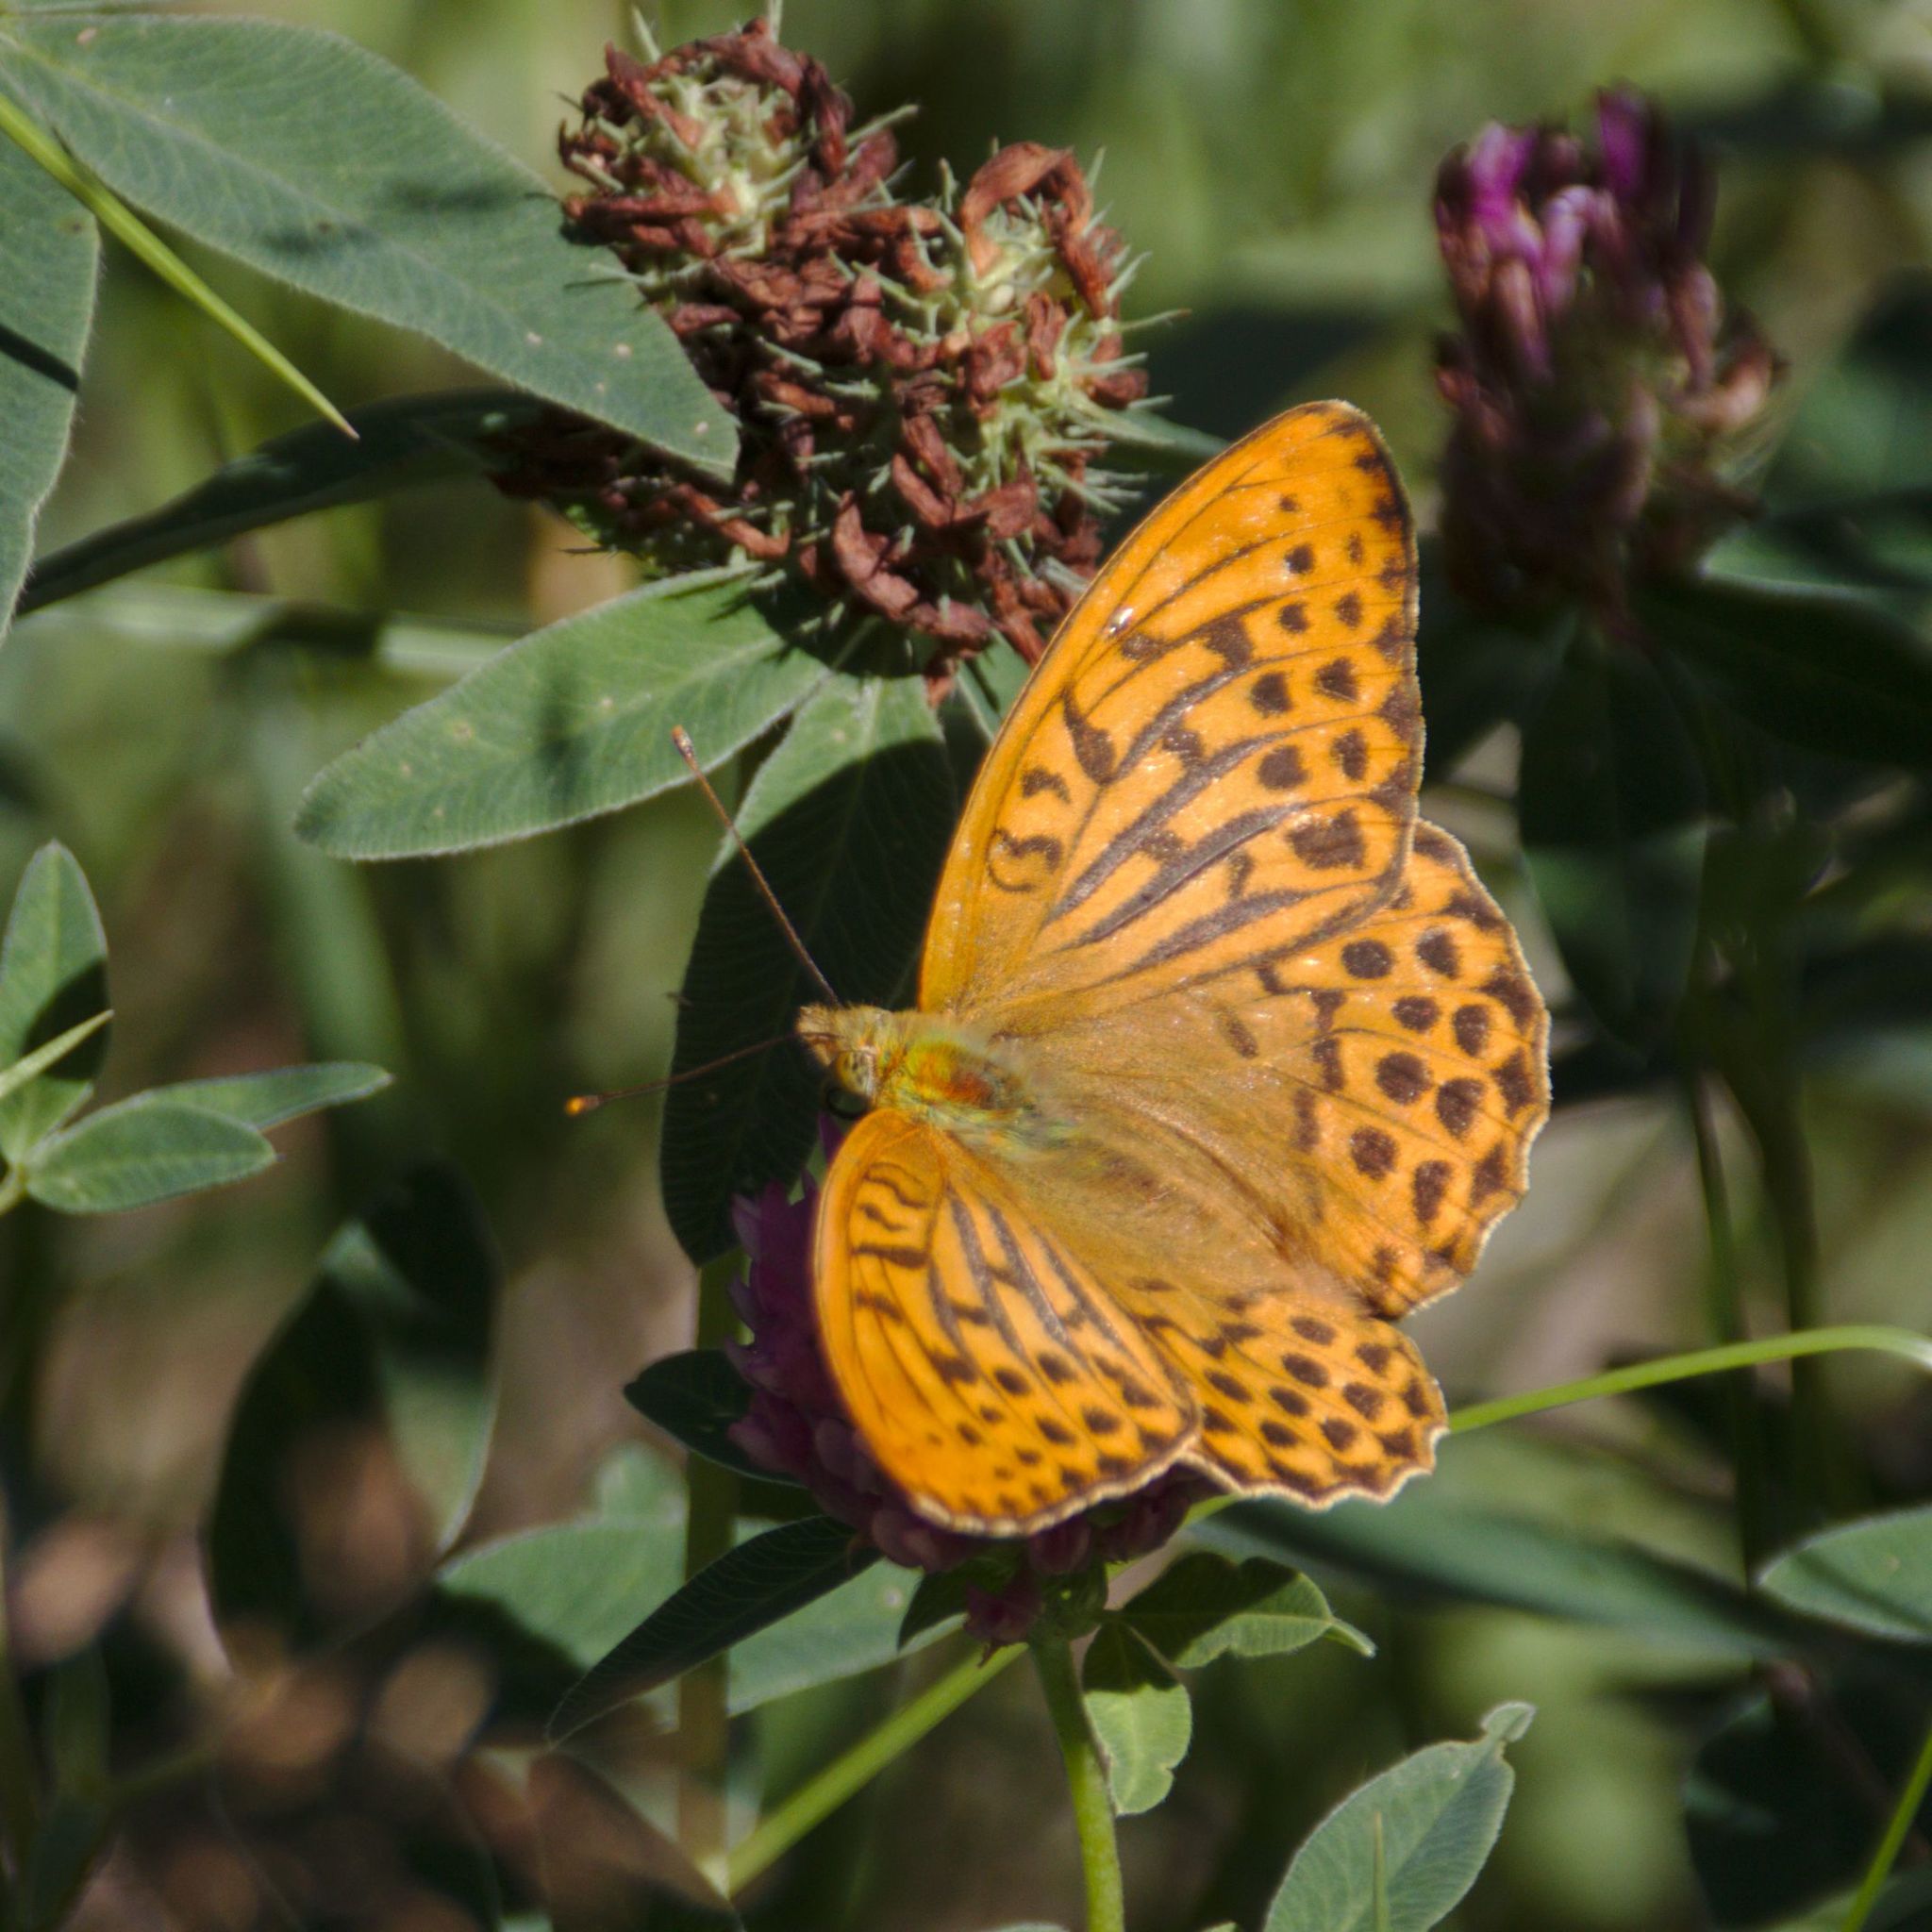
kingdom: Animalia
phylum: Arthropoda
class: Insecta
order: Lepidoptera
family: Nymphalidae
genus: Argynnis
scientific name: Argynnis paphia
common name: Silver-washed fritillary
